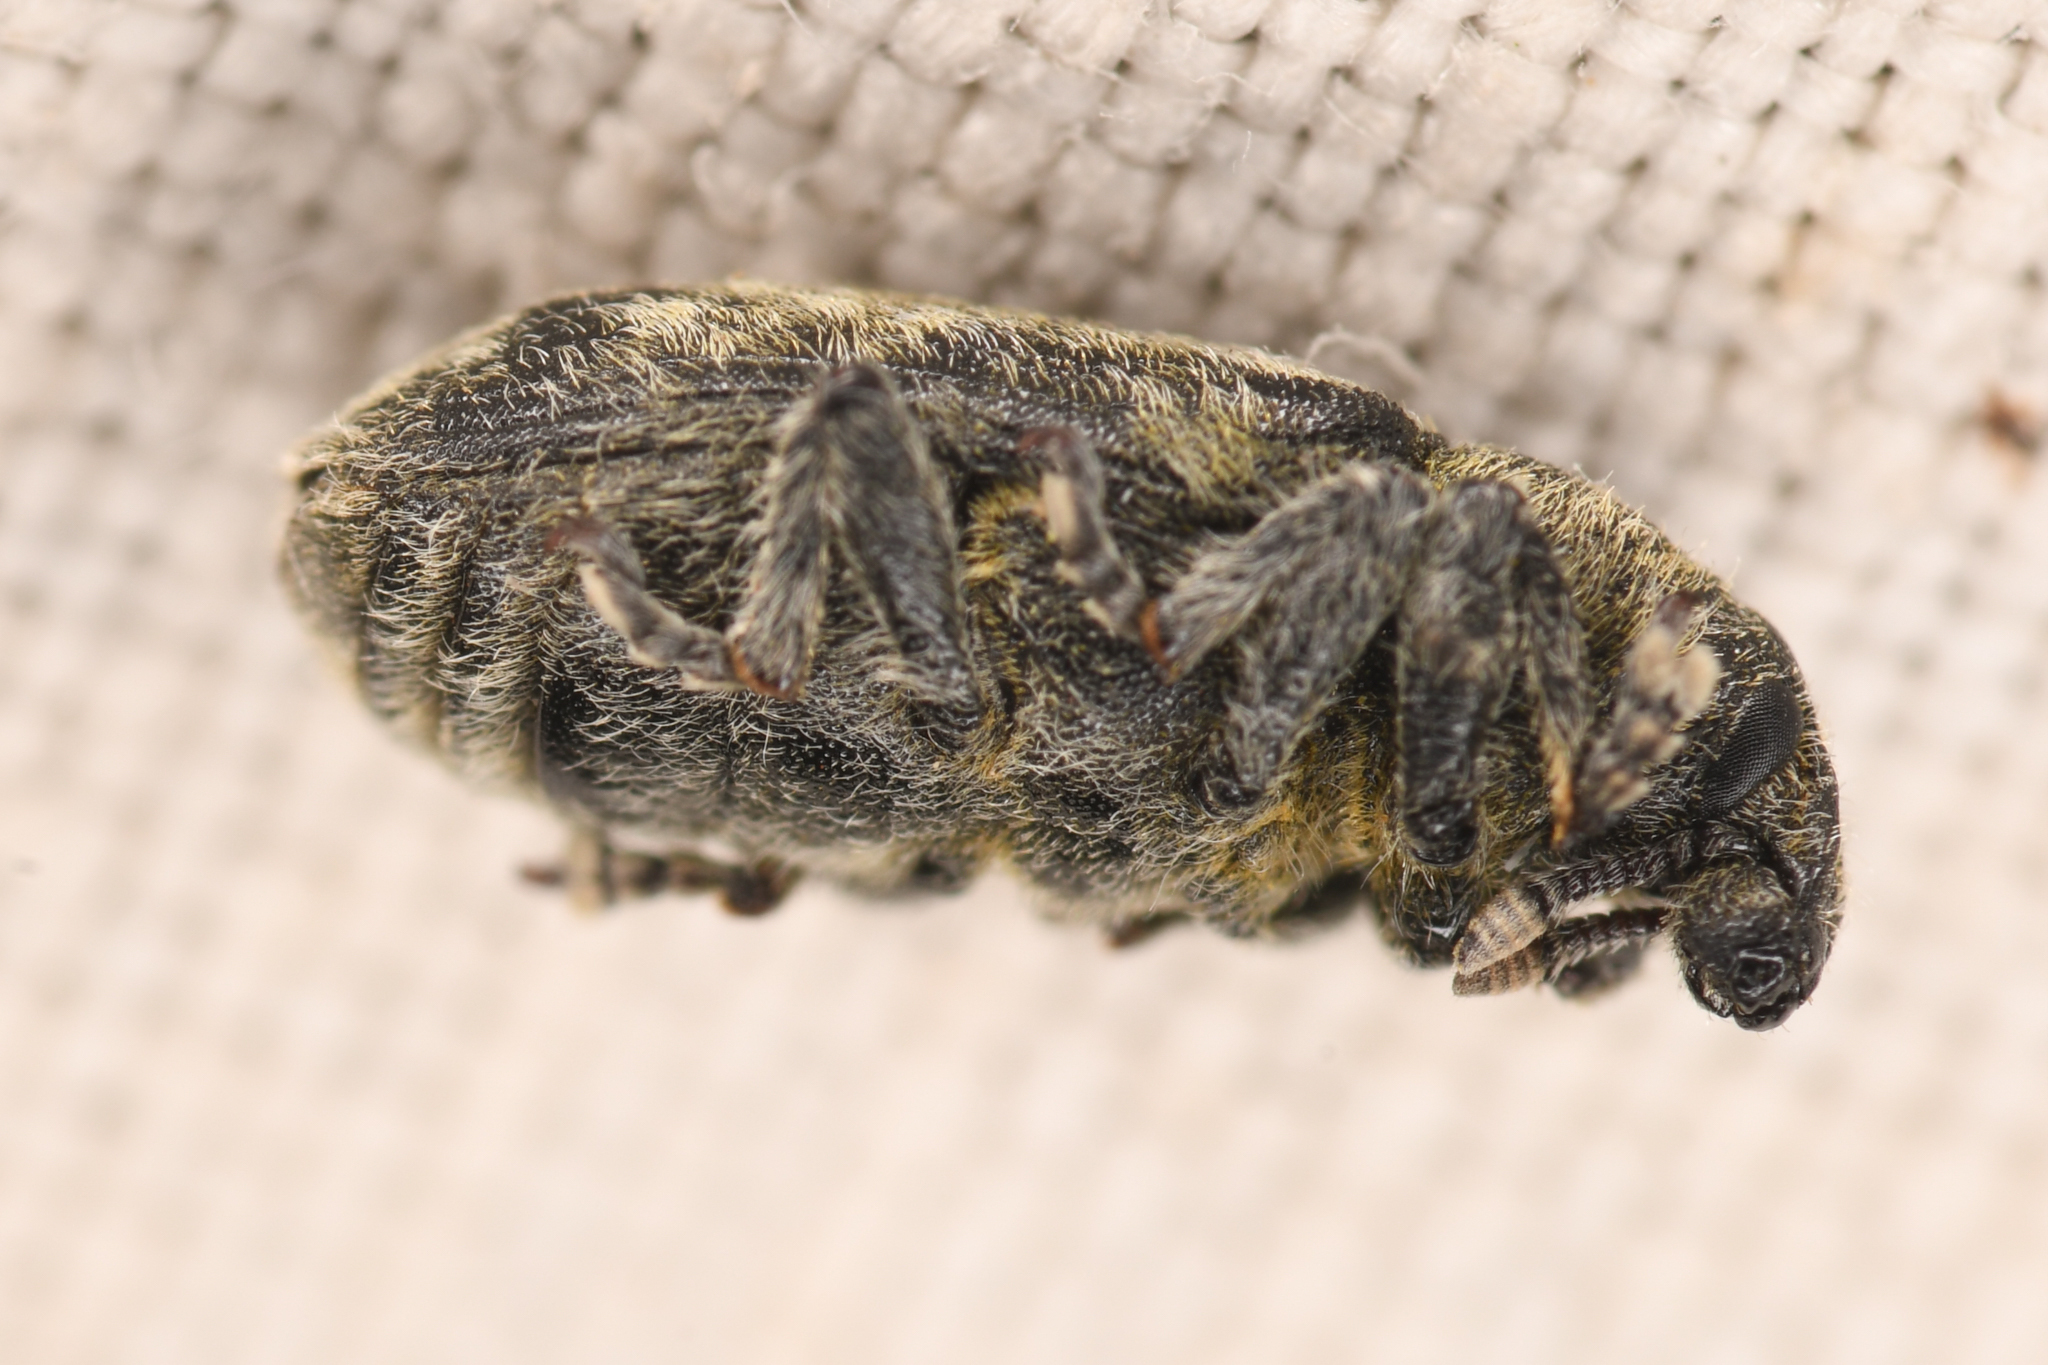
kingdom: Animalia
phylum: Arthropoda
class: Insecta
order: Coleoptera
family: Curculionidae
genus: Rhinocyllus
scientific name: Rhinocyllus conicus
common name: Weevil
